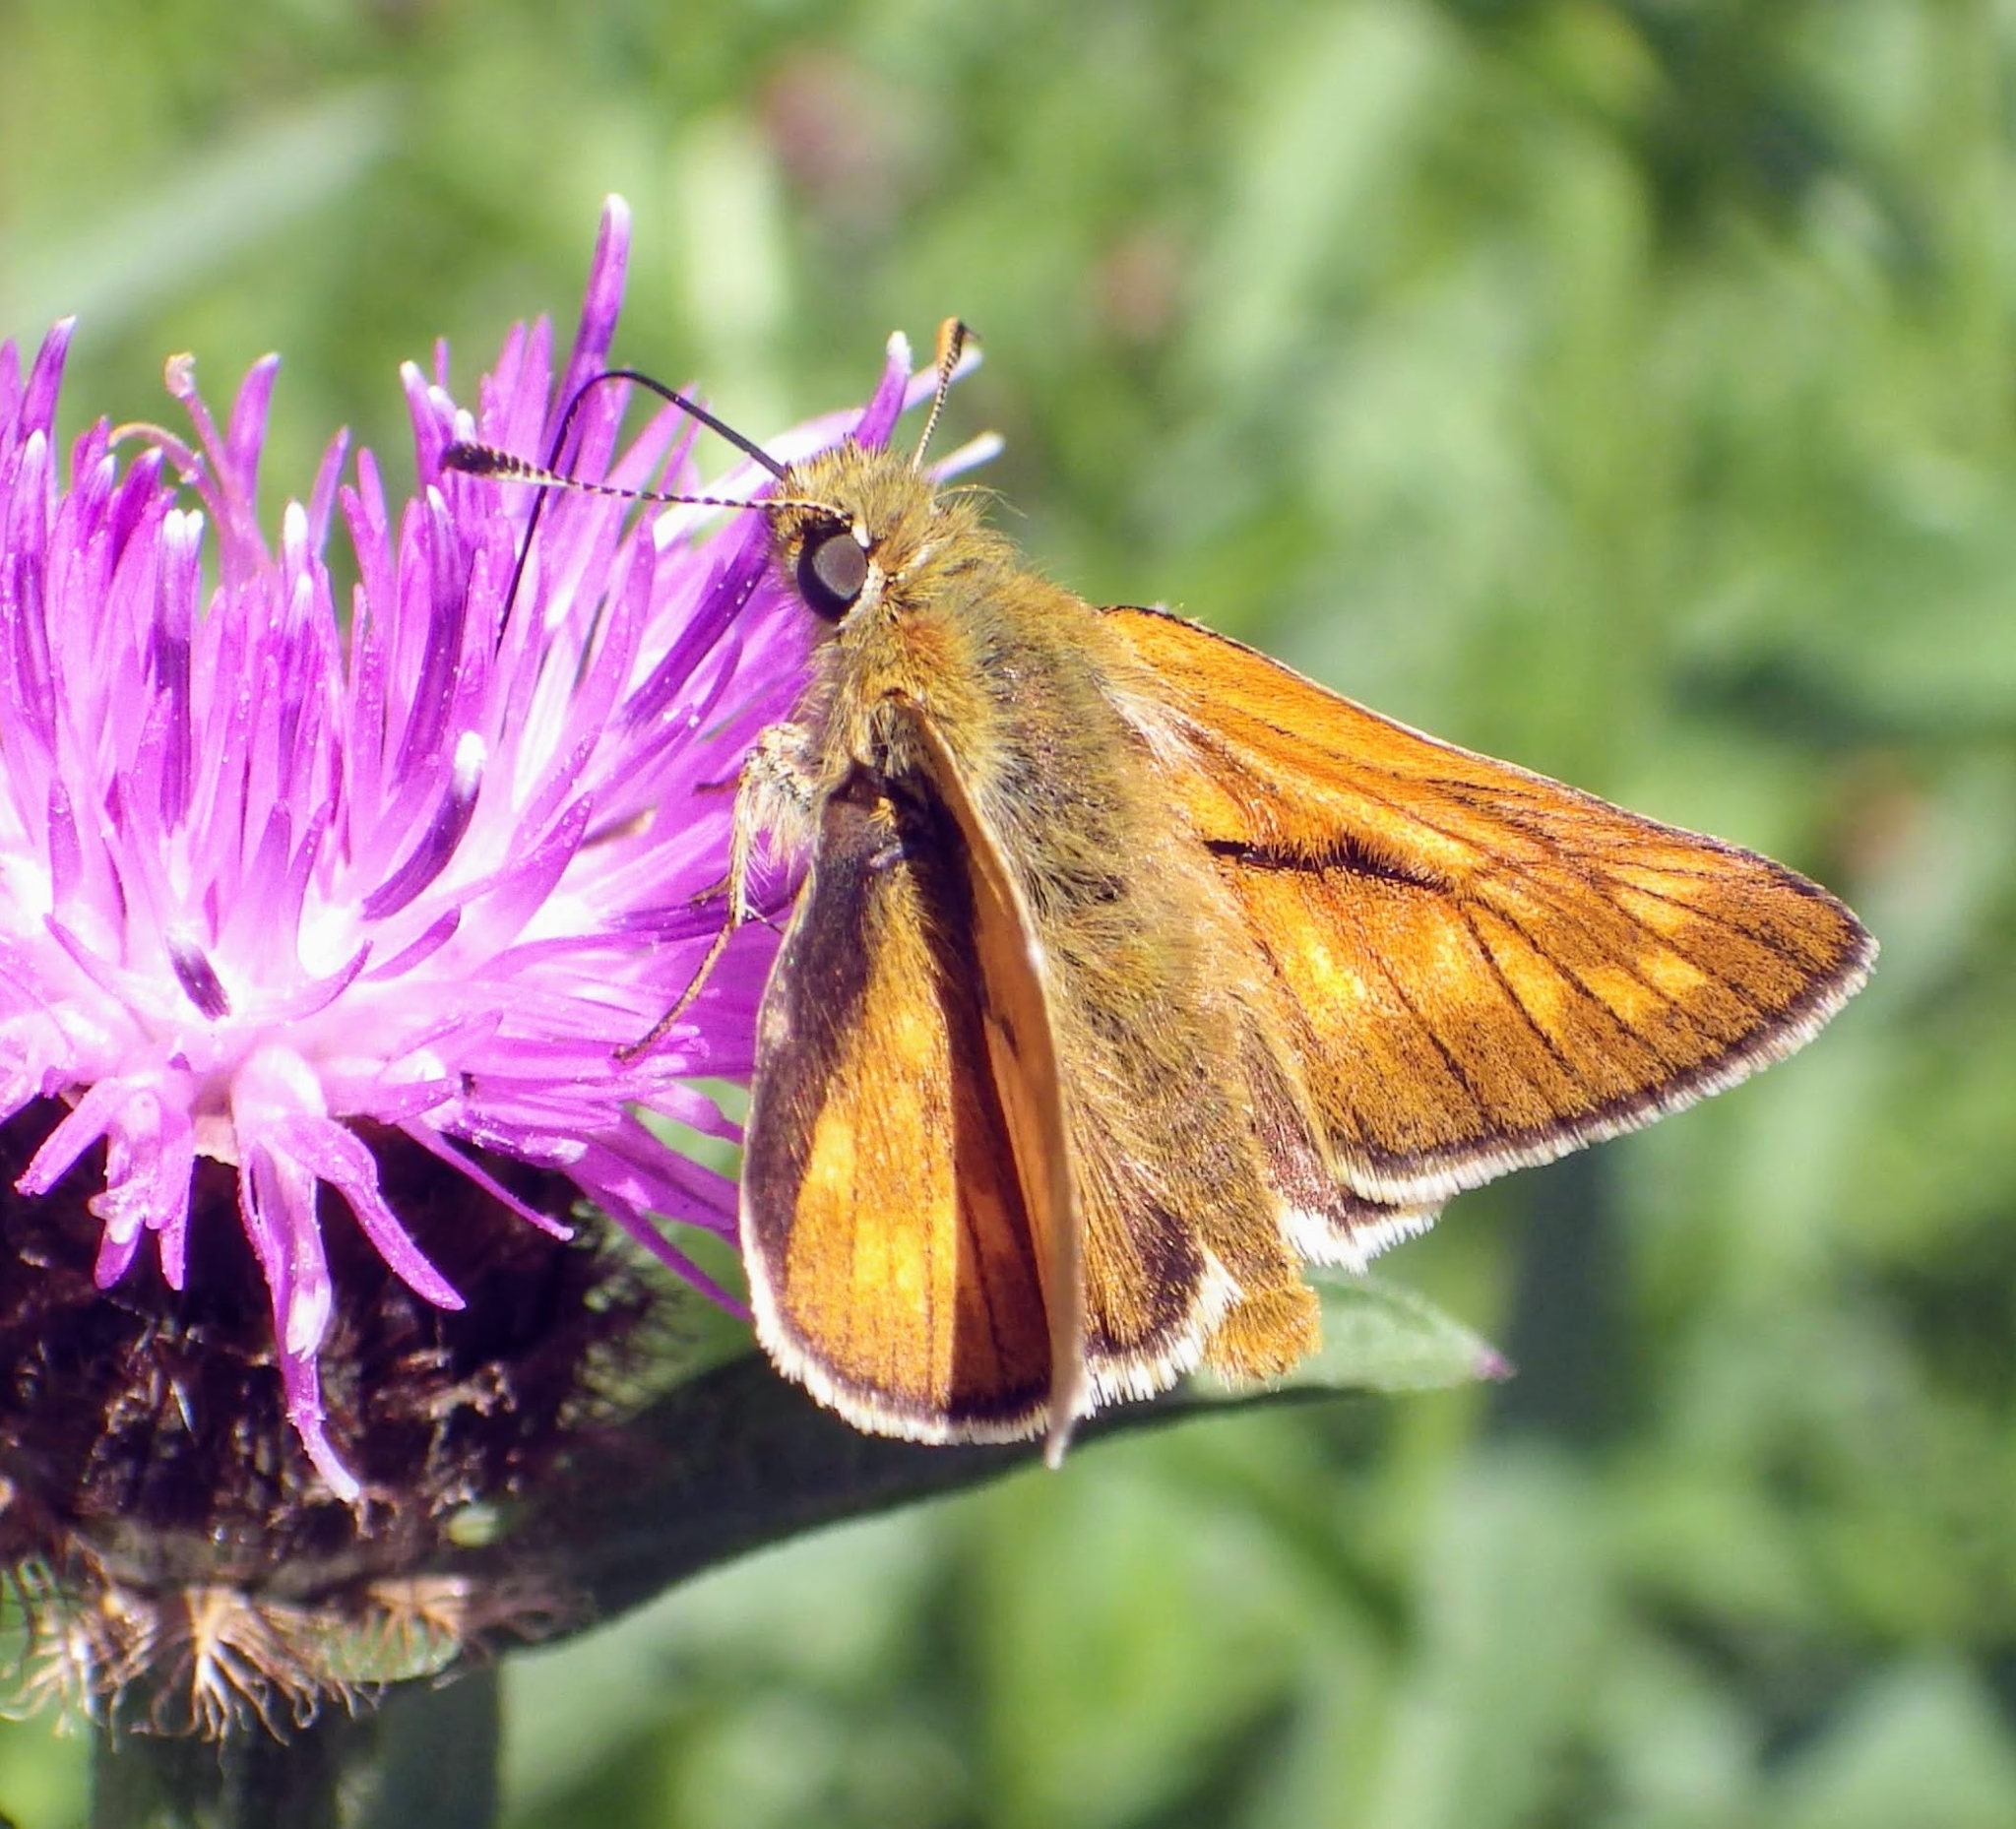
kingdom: Animalia
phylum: Arthropoda
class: Insecta
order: Lepidoptera
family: Hesperiidae
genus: Ochlodes
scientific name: Ochlodes venata
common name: Large skipper
